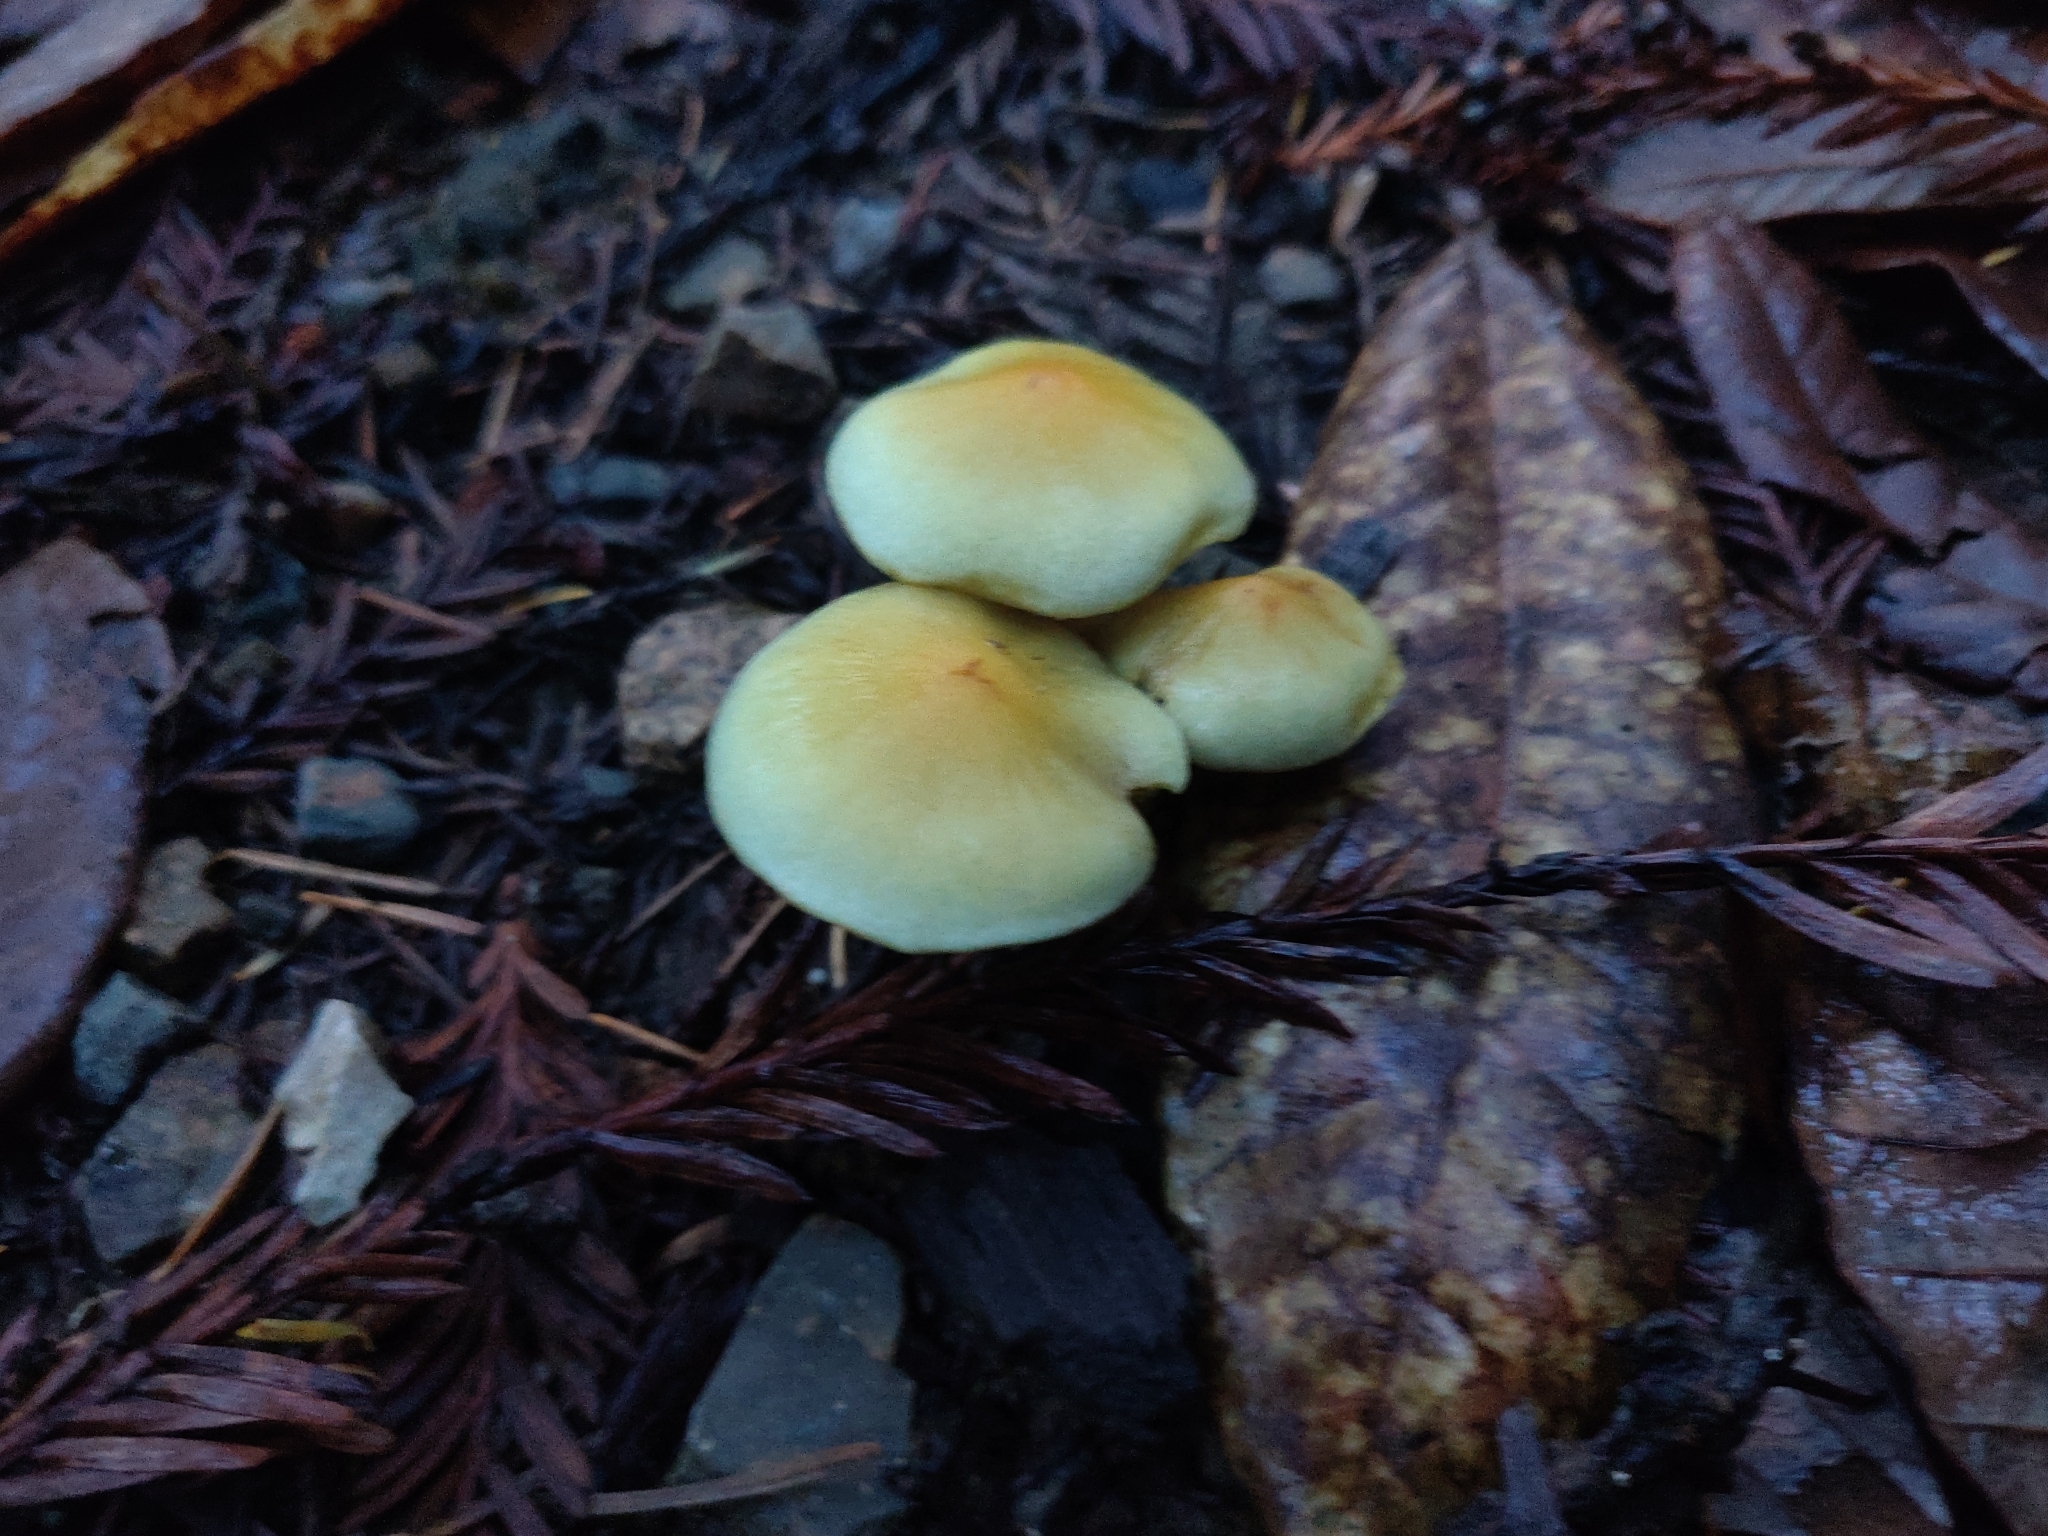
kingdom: Fungi
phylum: Basidiomycota
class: Agaricomycetes
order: Agaricales
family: Strophariaceae
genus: Hypholoma
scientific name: Hypholoma fasciculare
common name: Sulphur tuft
